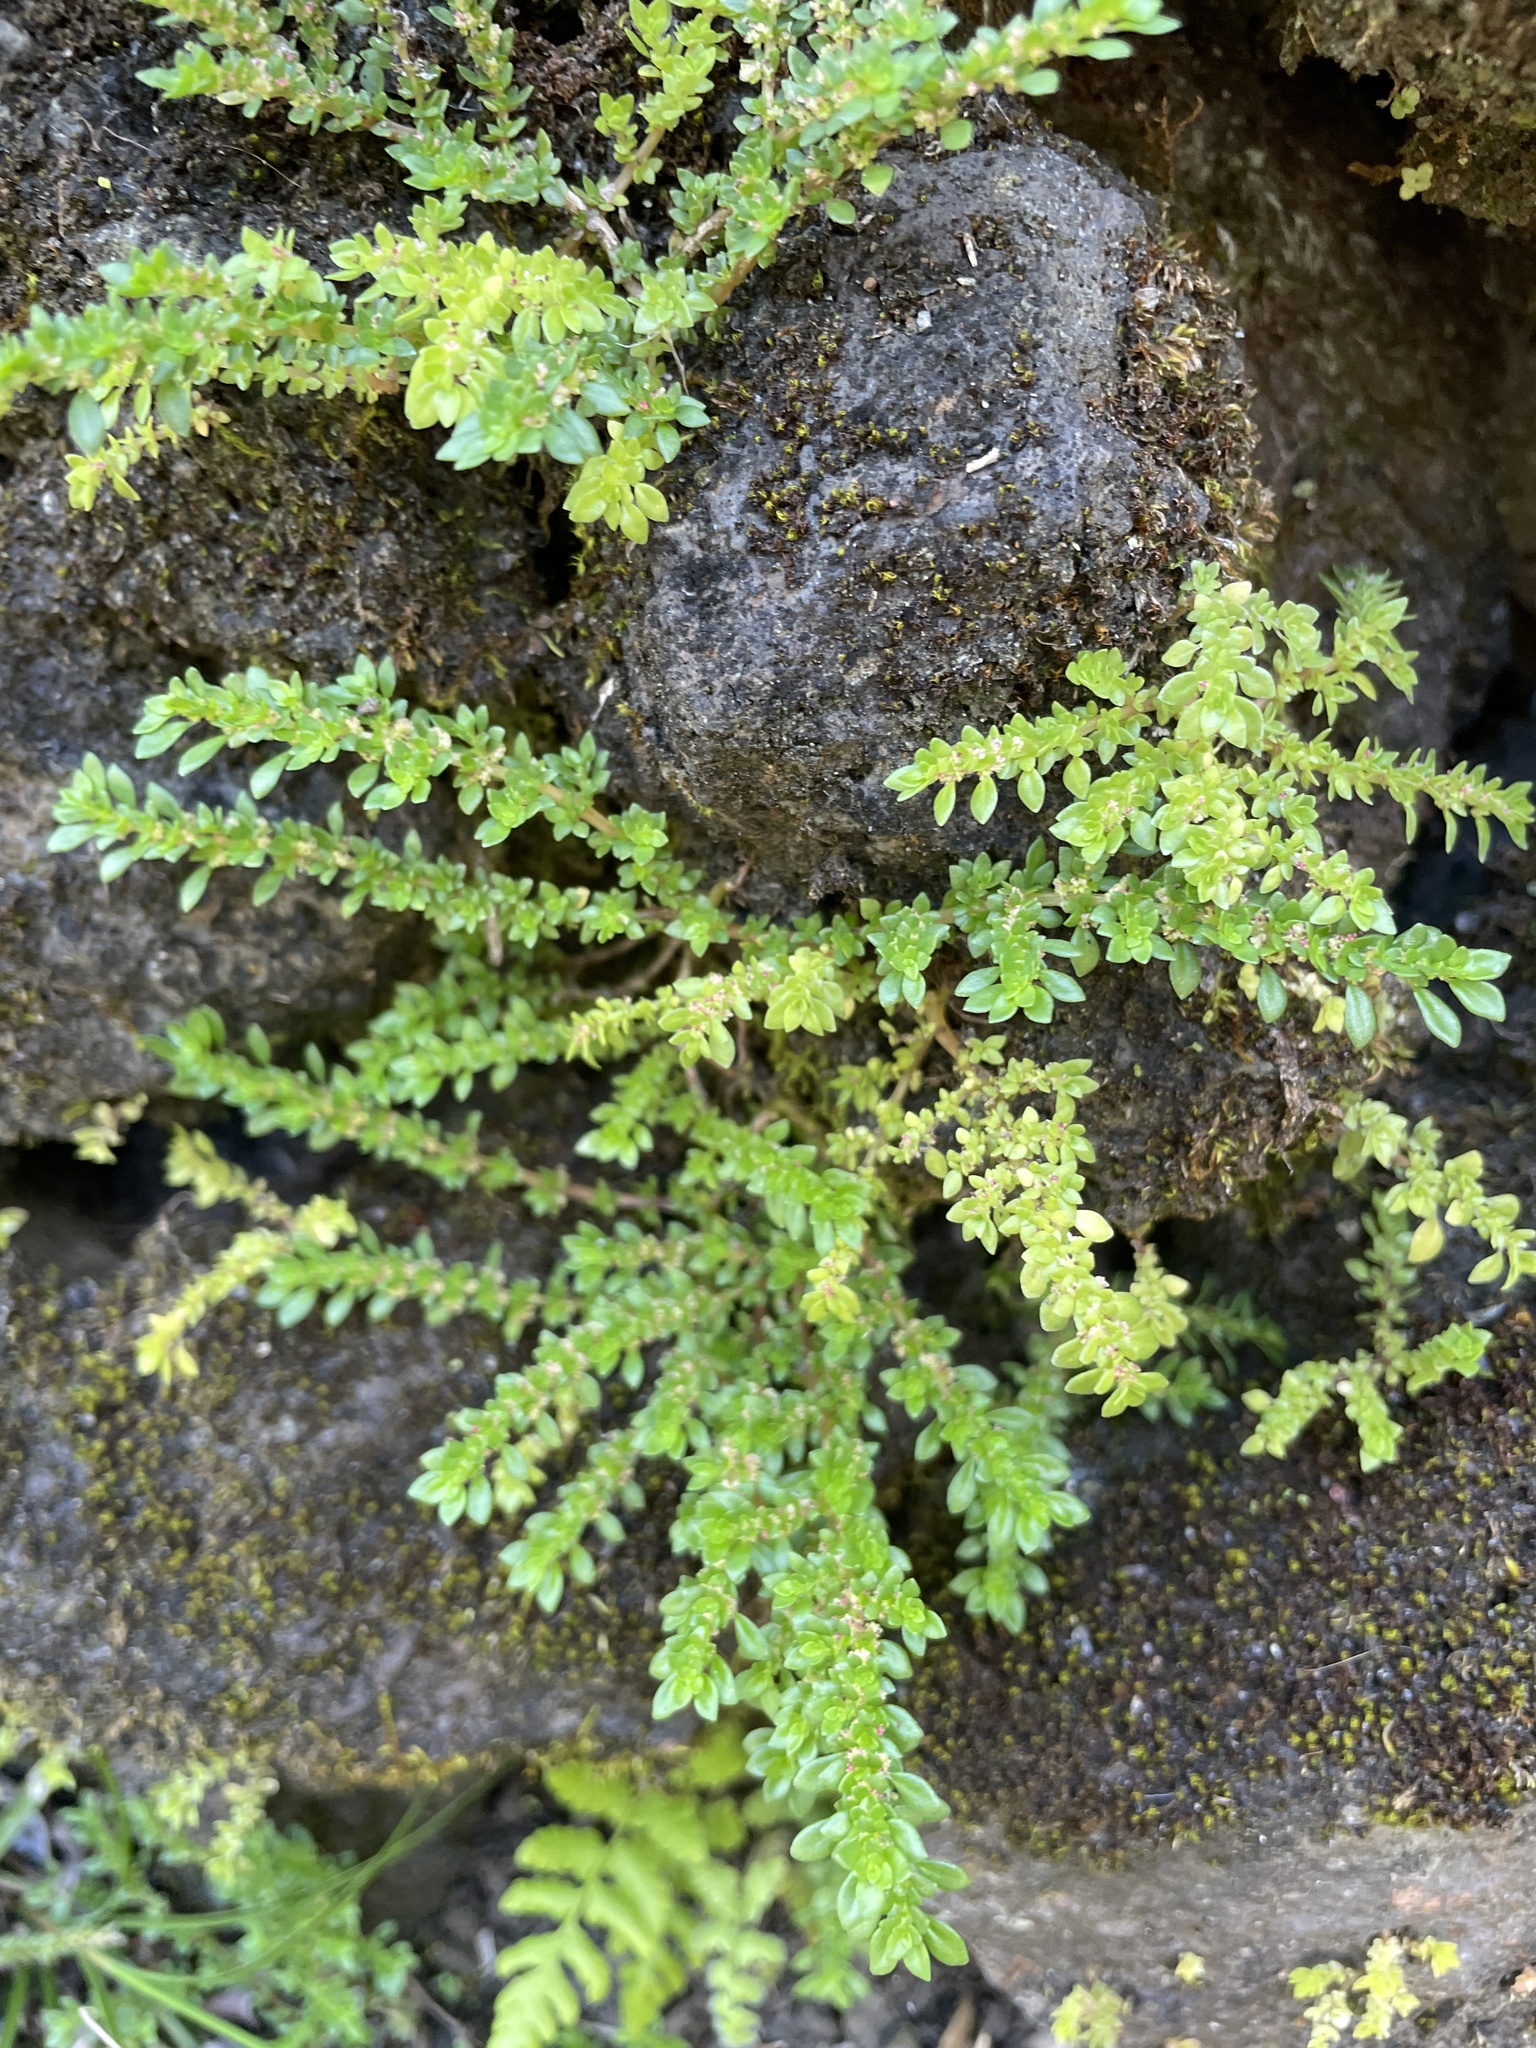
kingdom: Plantae
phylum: Tracheophyta
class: Magnoliopsida
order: Rosales
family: Urticaceae
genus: Pilea
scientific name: Pilea microphylla
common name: Artillery-plant
